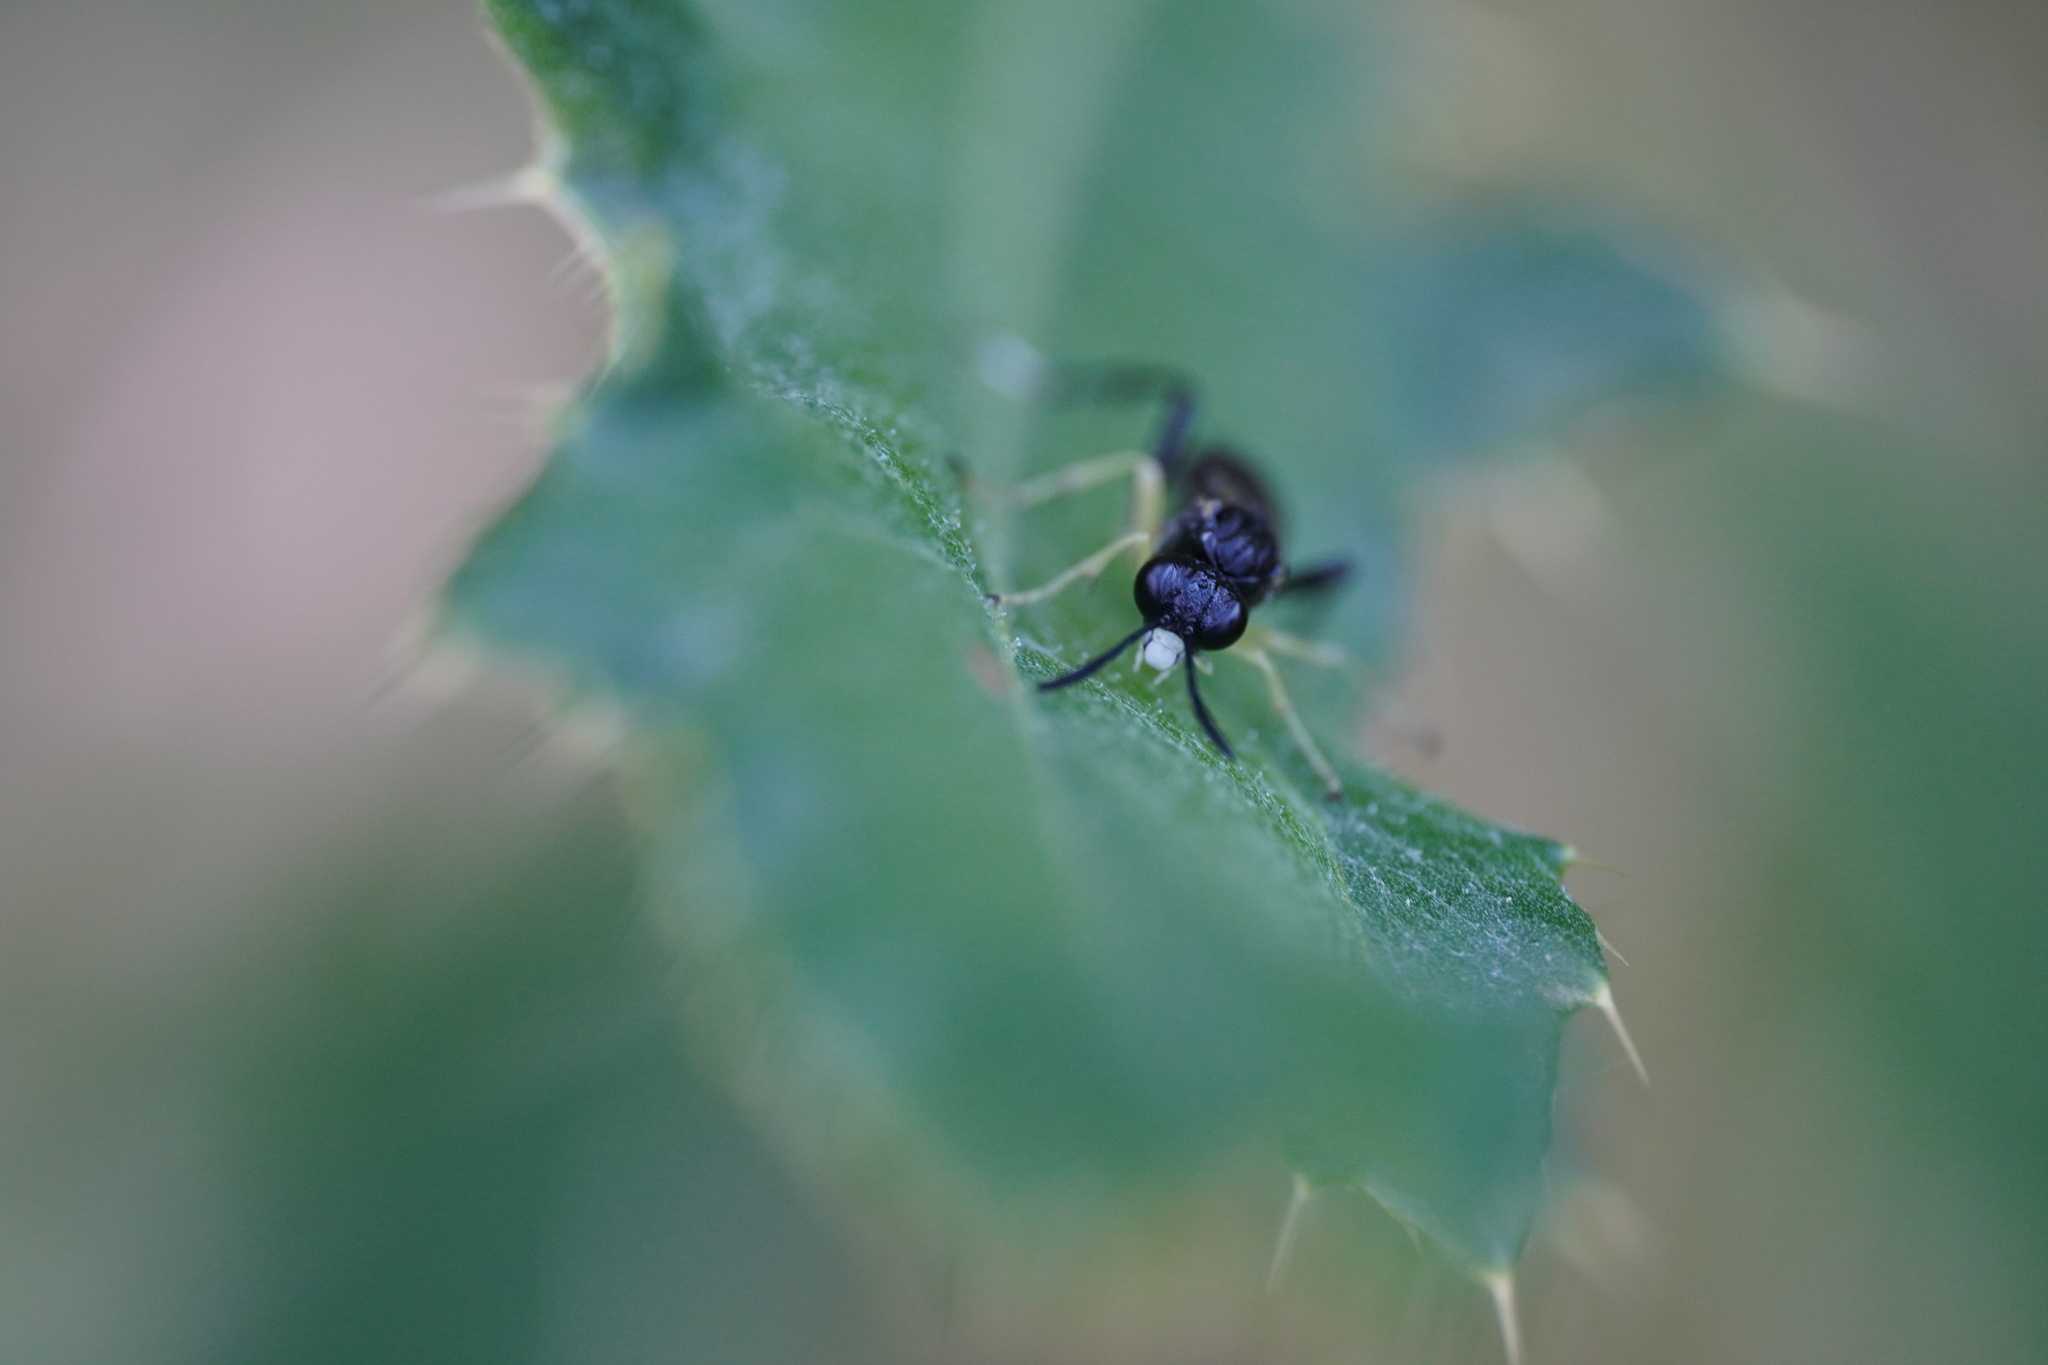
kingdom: Animalia
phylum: Arthropoda
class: Insecta
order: Hymenoptera
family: Tenthredinidae
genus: Macrophya
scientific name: Macrophya montana
